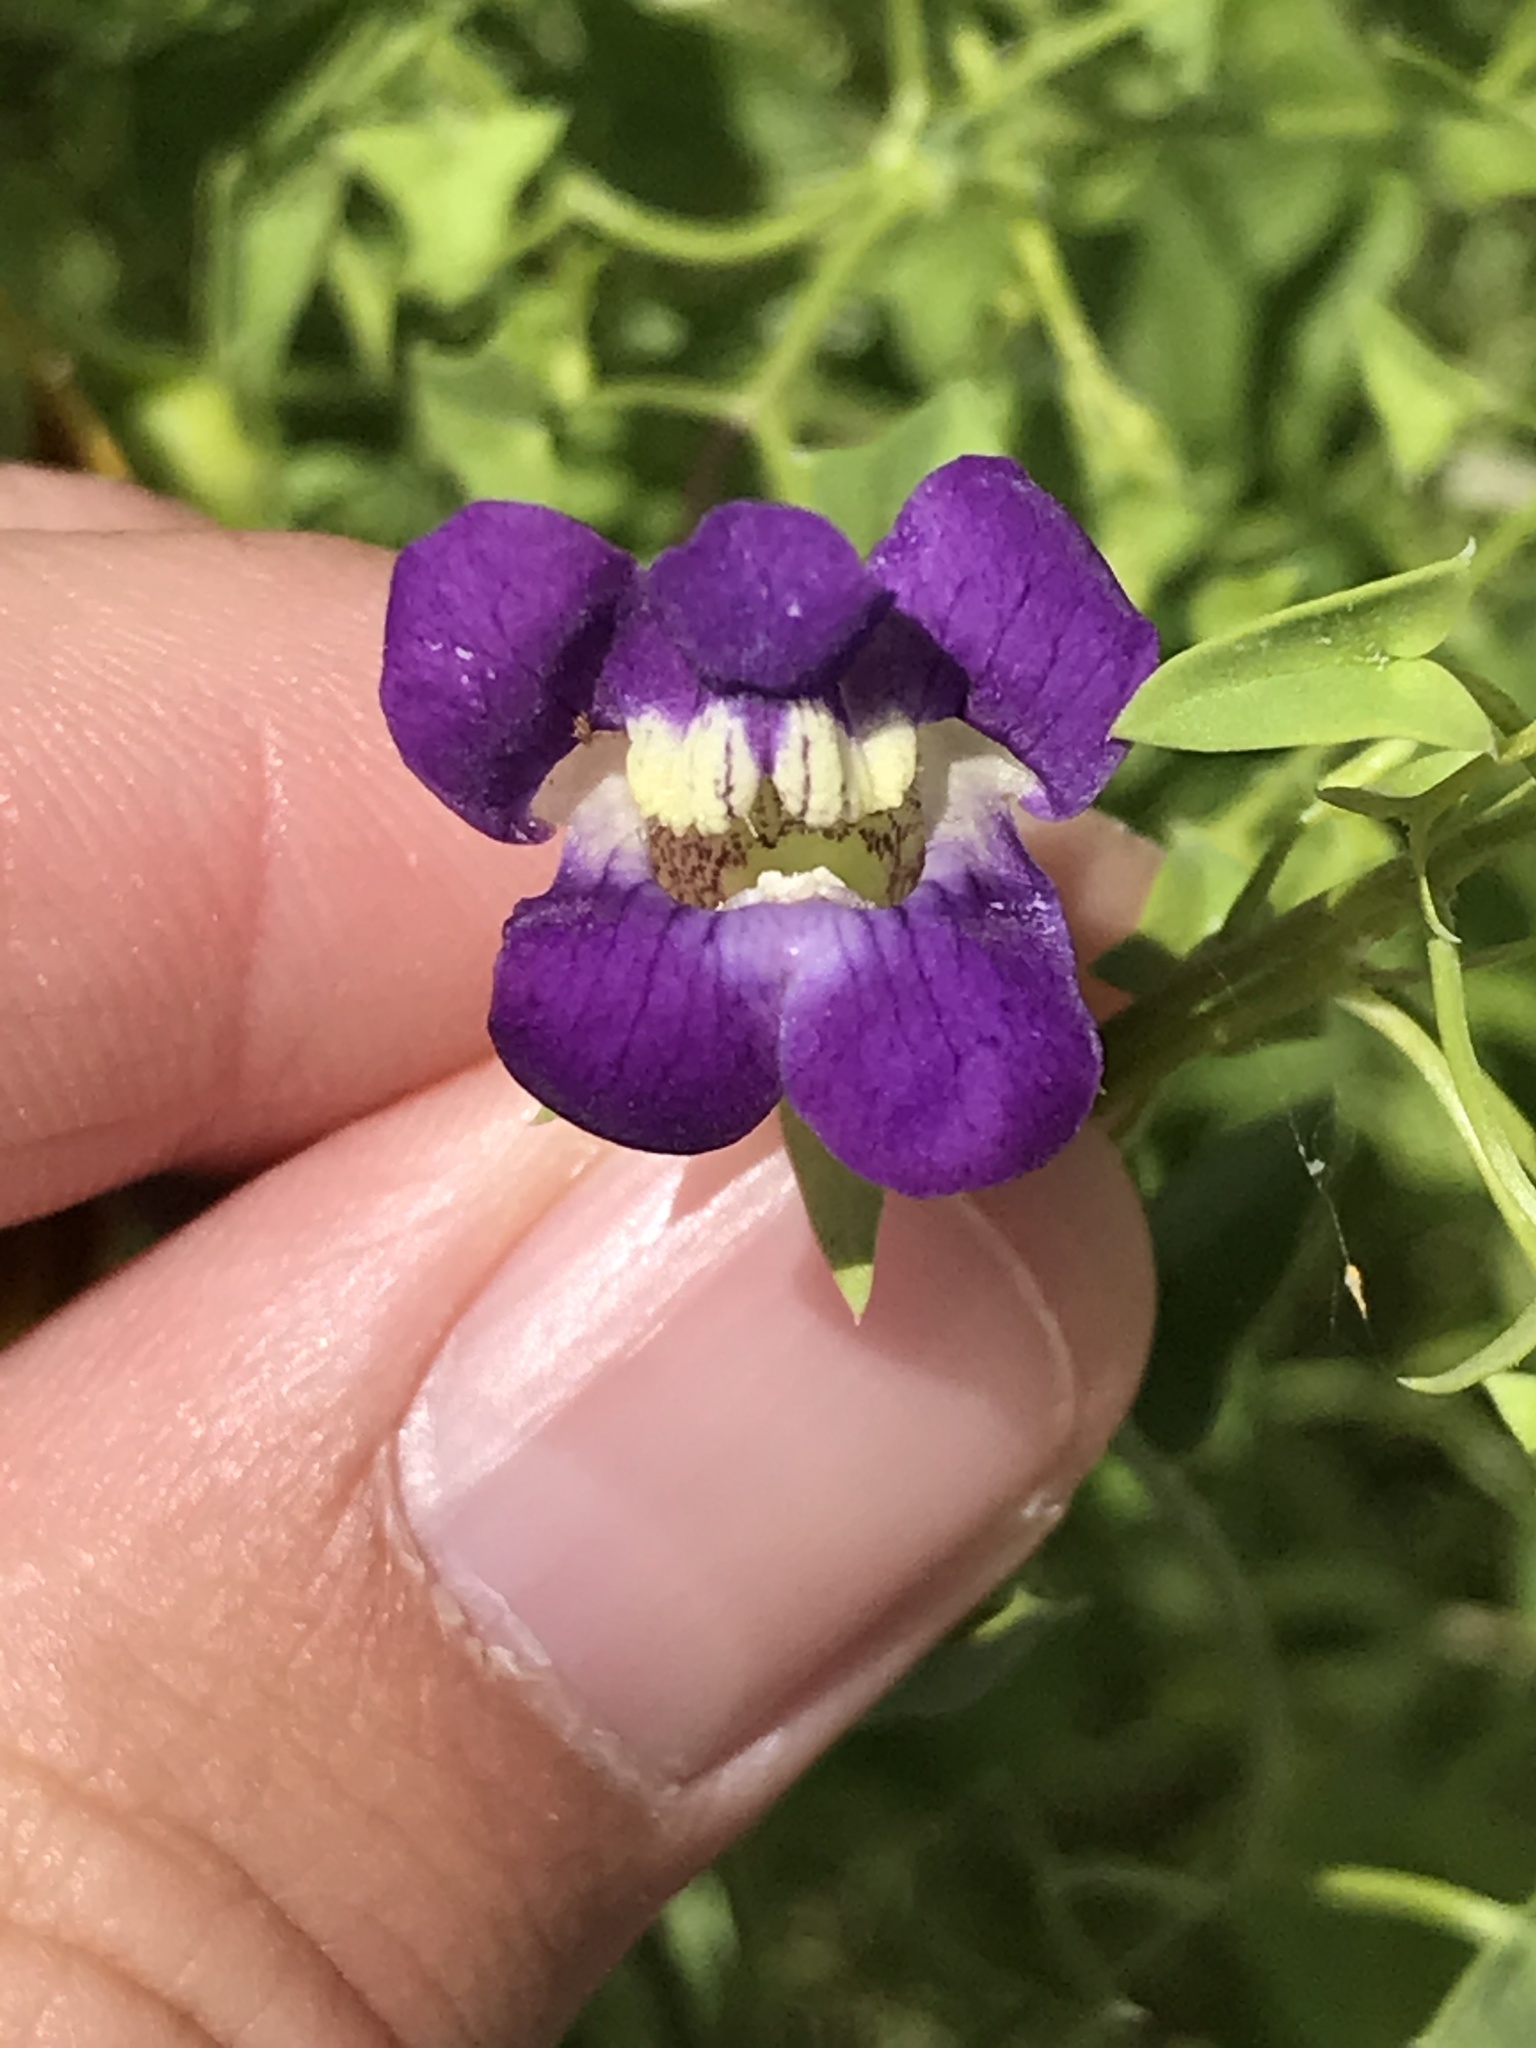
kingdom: Plantae
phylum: Tracheophyta
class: Magnoliopsida
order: Lamiales
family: Plantaginaceae
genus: Maurandella
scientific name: Maurandella antirrhiniflora
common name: Violet twining-snapdragon
